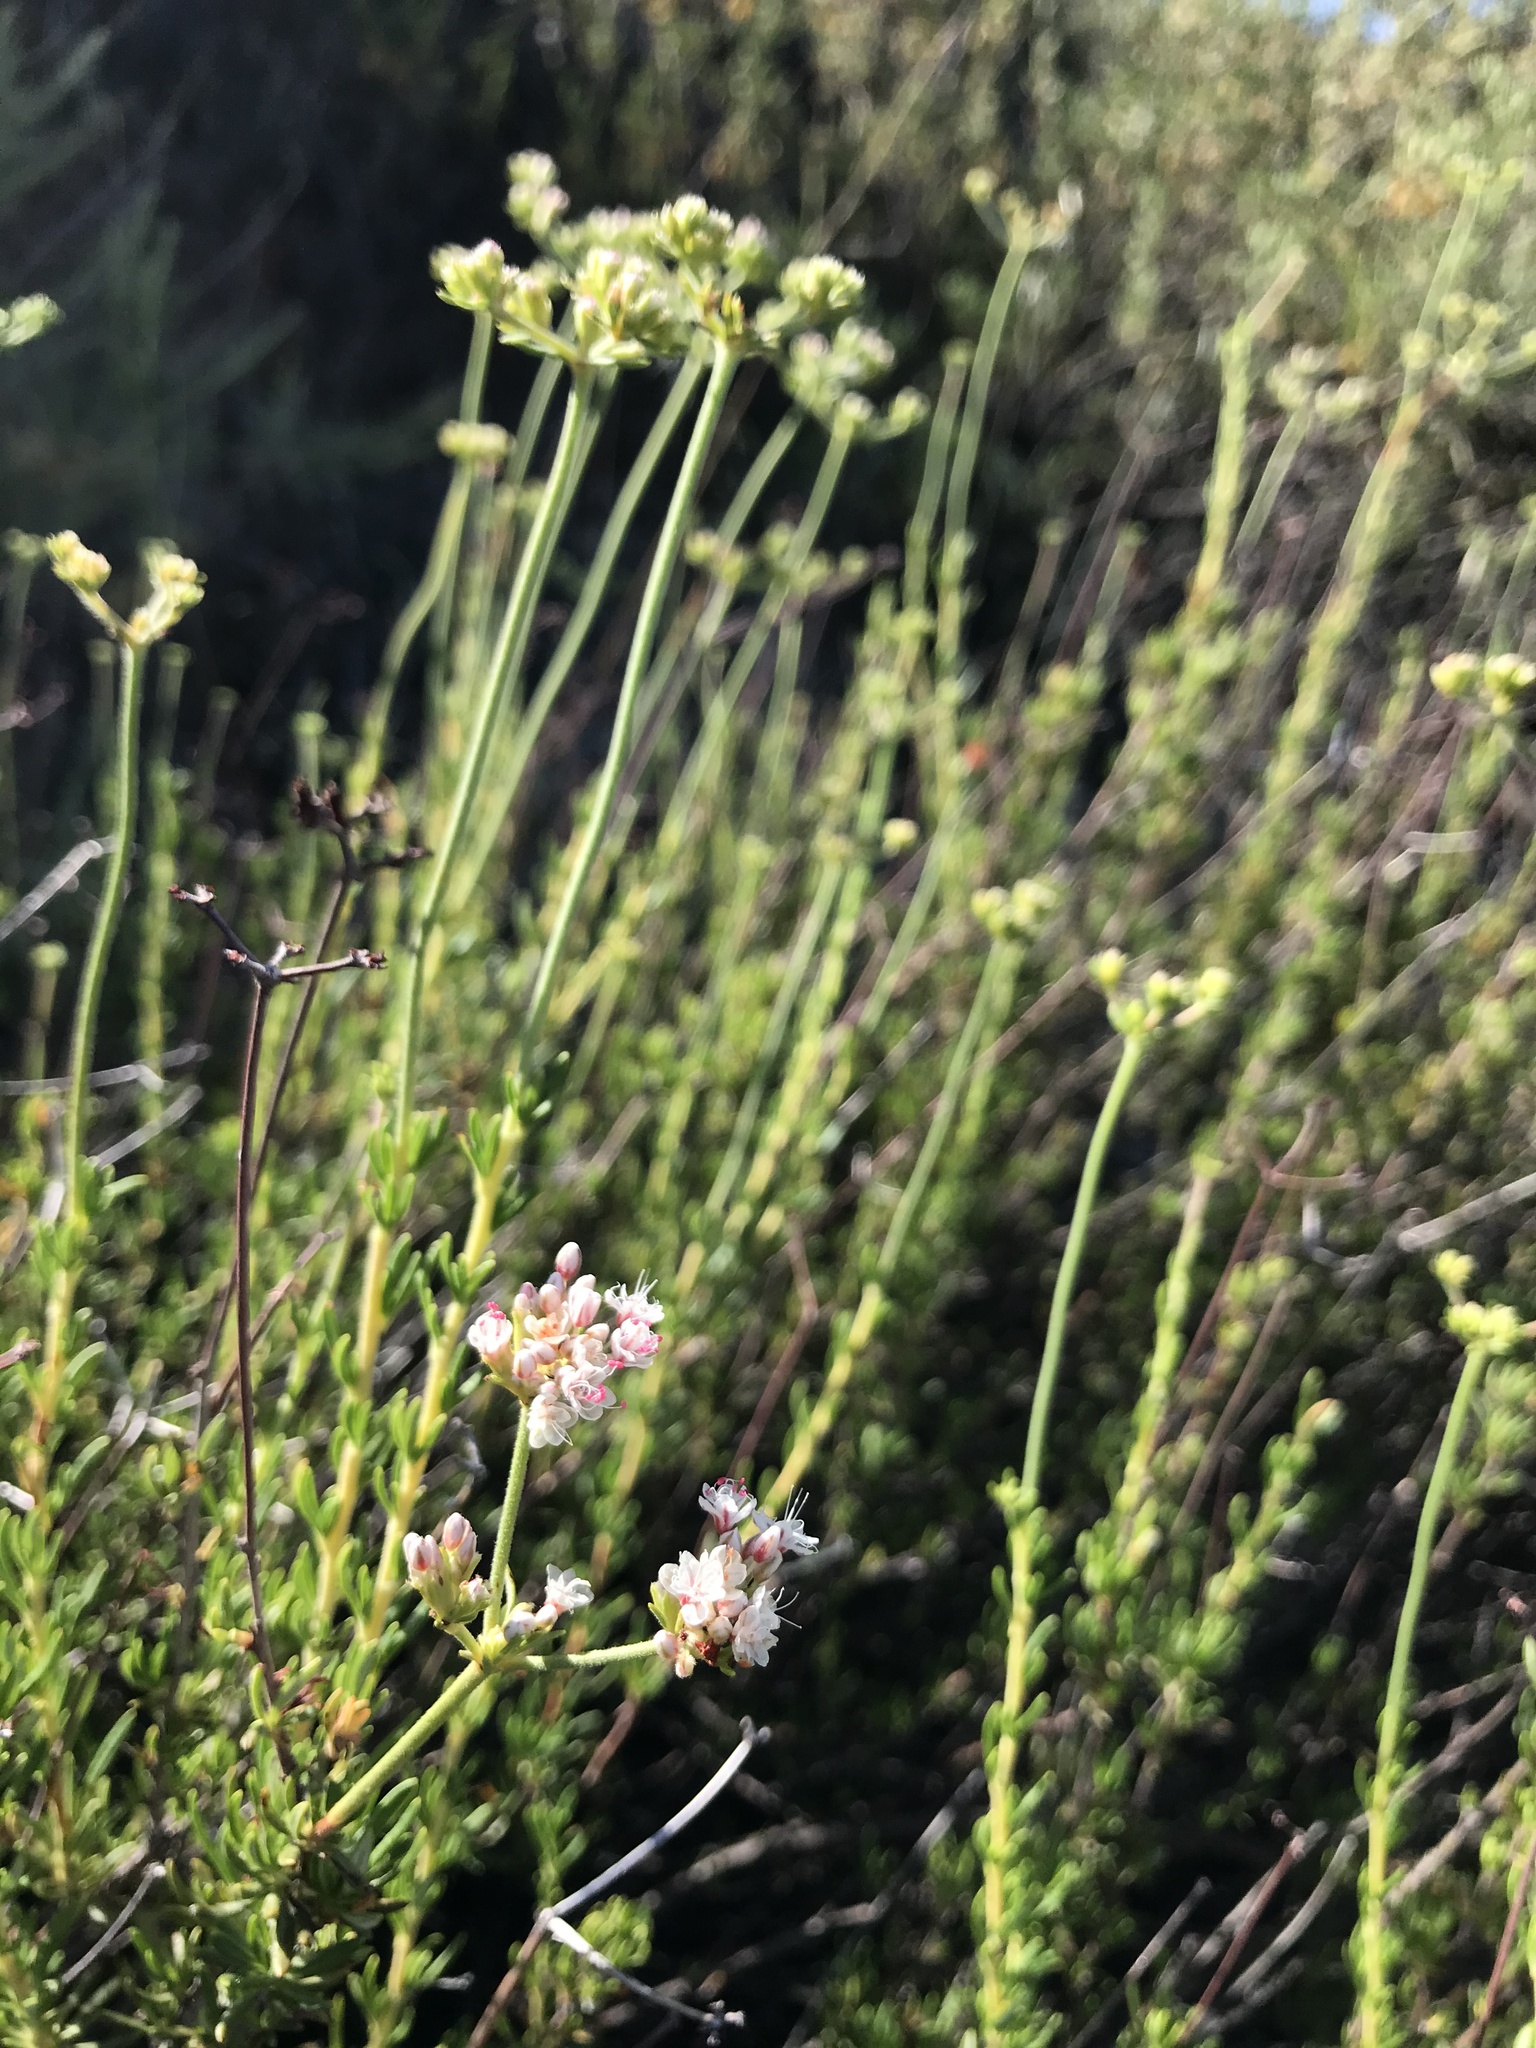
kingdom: Plantae
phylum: Tracheophyta
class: Magnoliopsida
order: Caryophyllales
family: Polygonaceae
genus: Eriogonum
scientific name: Eriogonum fasciculatum
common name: California wild buckwheat
